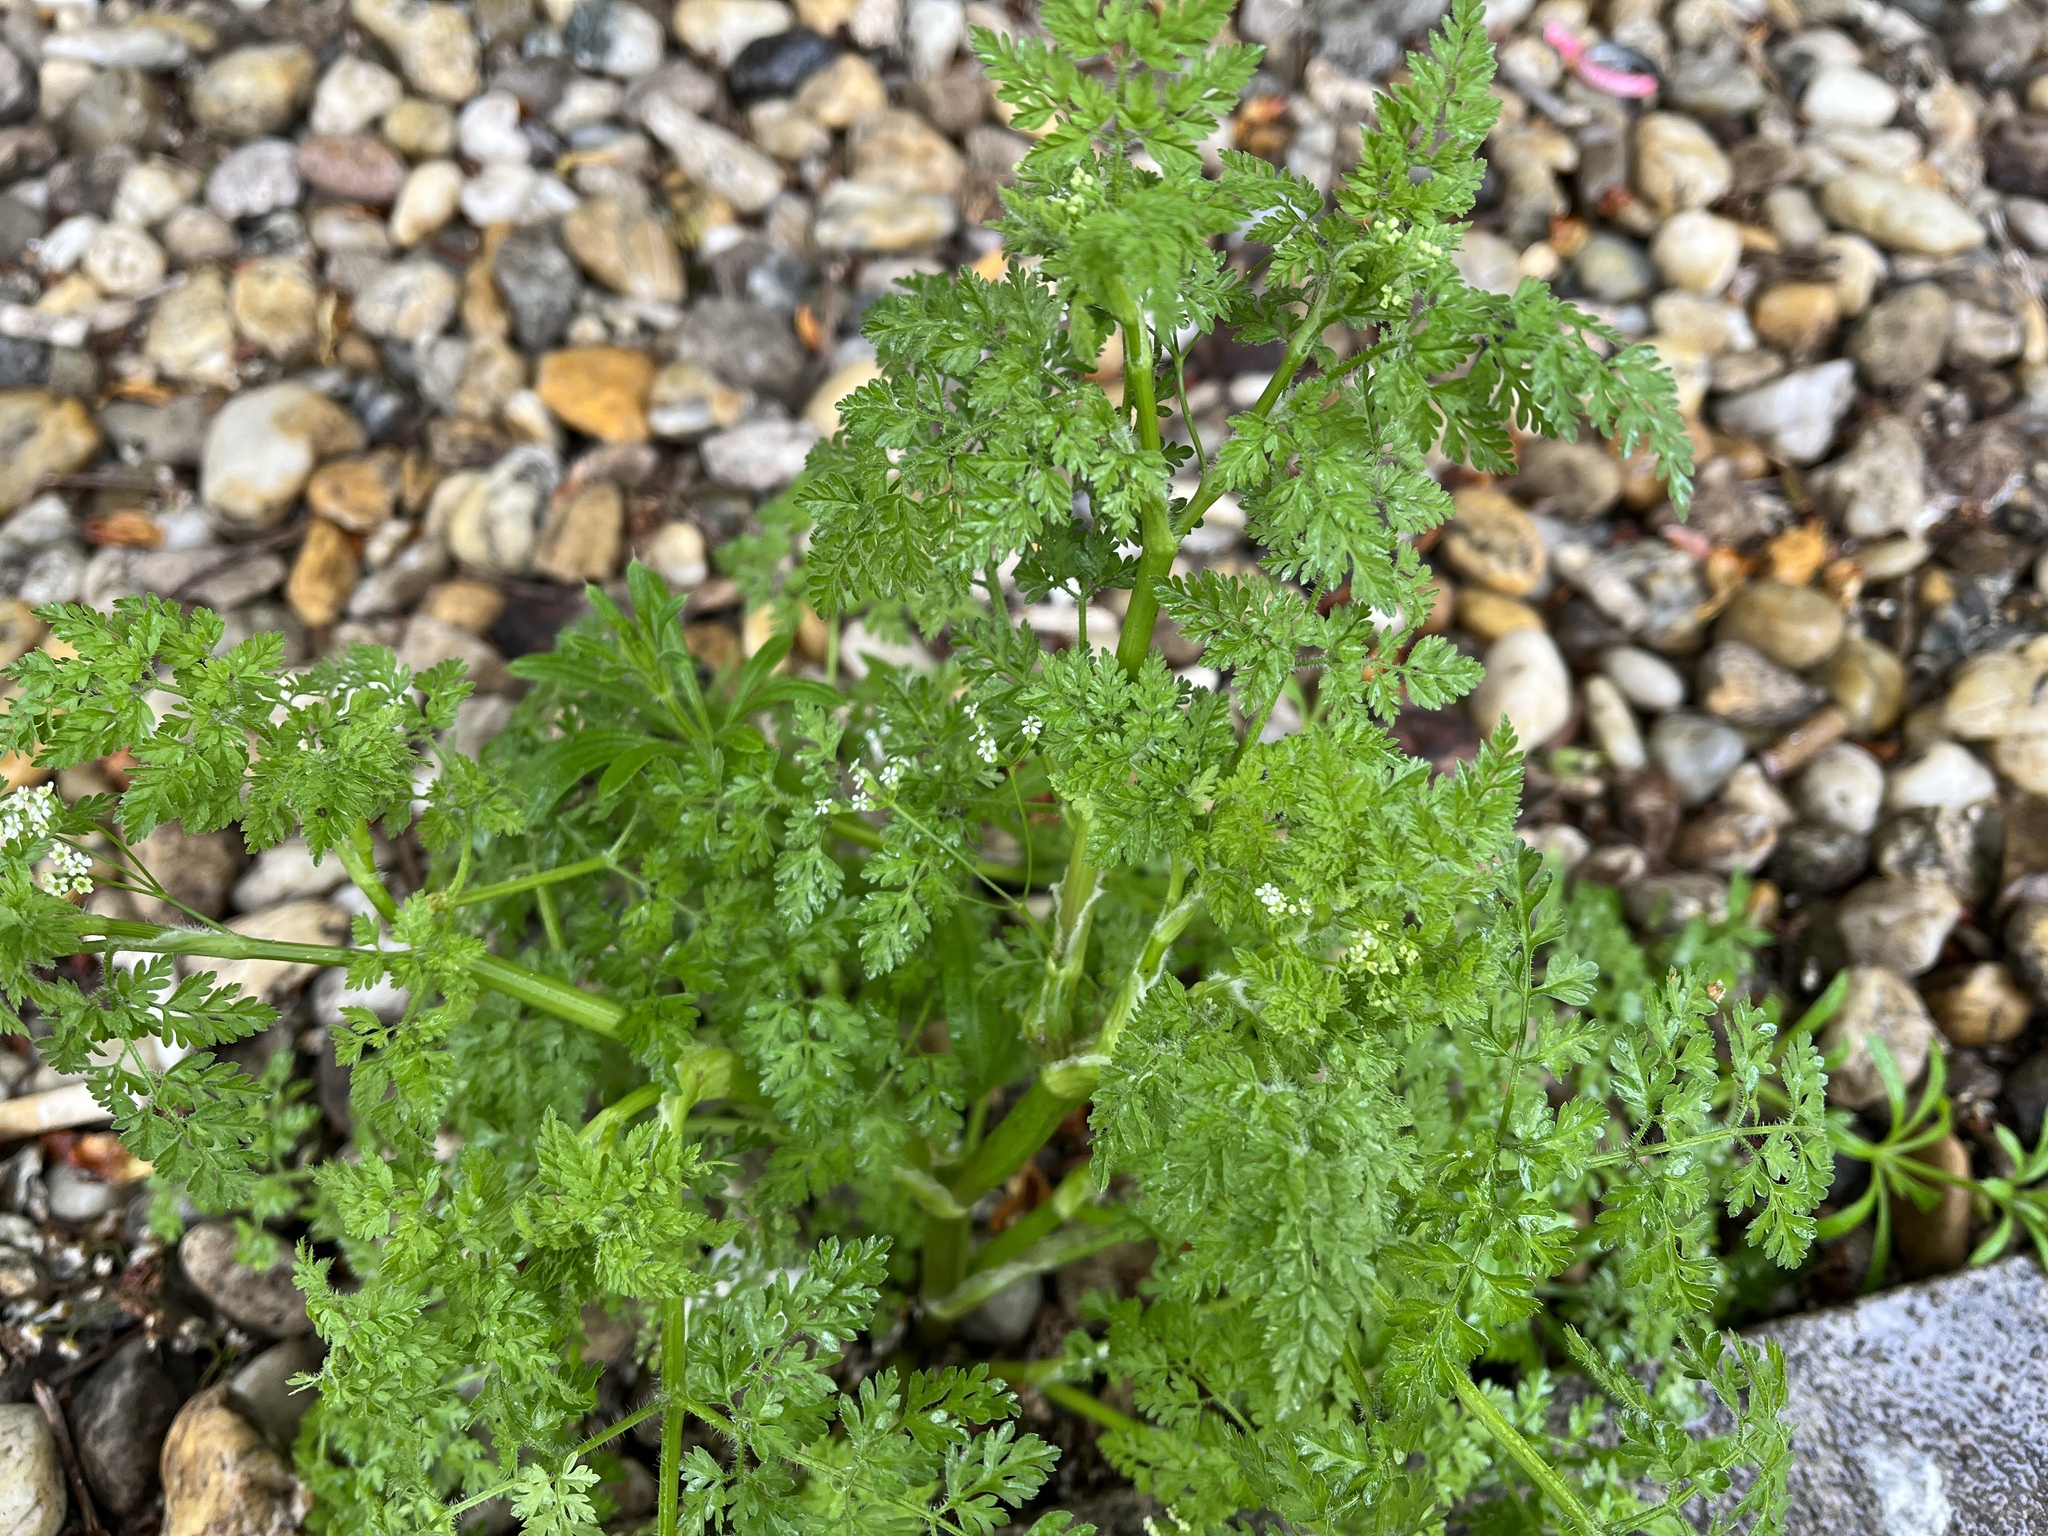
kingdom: Plantae
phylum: Tracheophyta
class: Magnoliopsida
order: Apiales
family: Apiaceae
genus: Anthriscus
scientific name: Anthriscus caucalis
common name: Bur chervil
